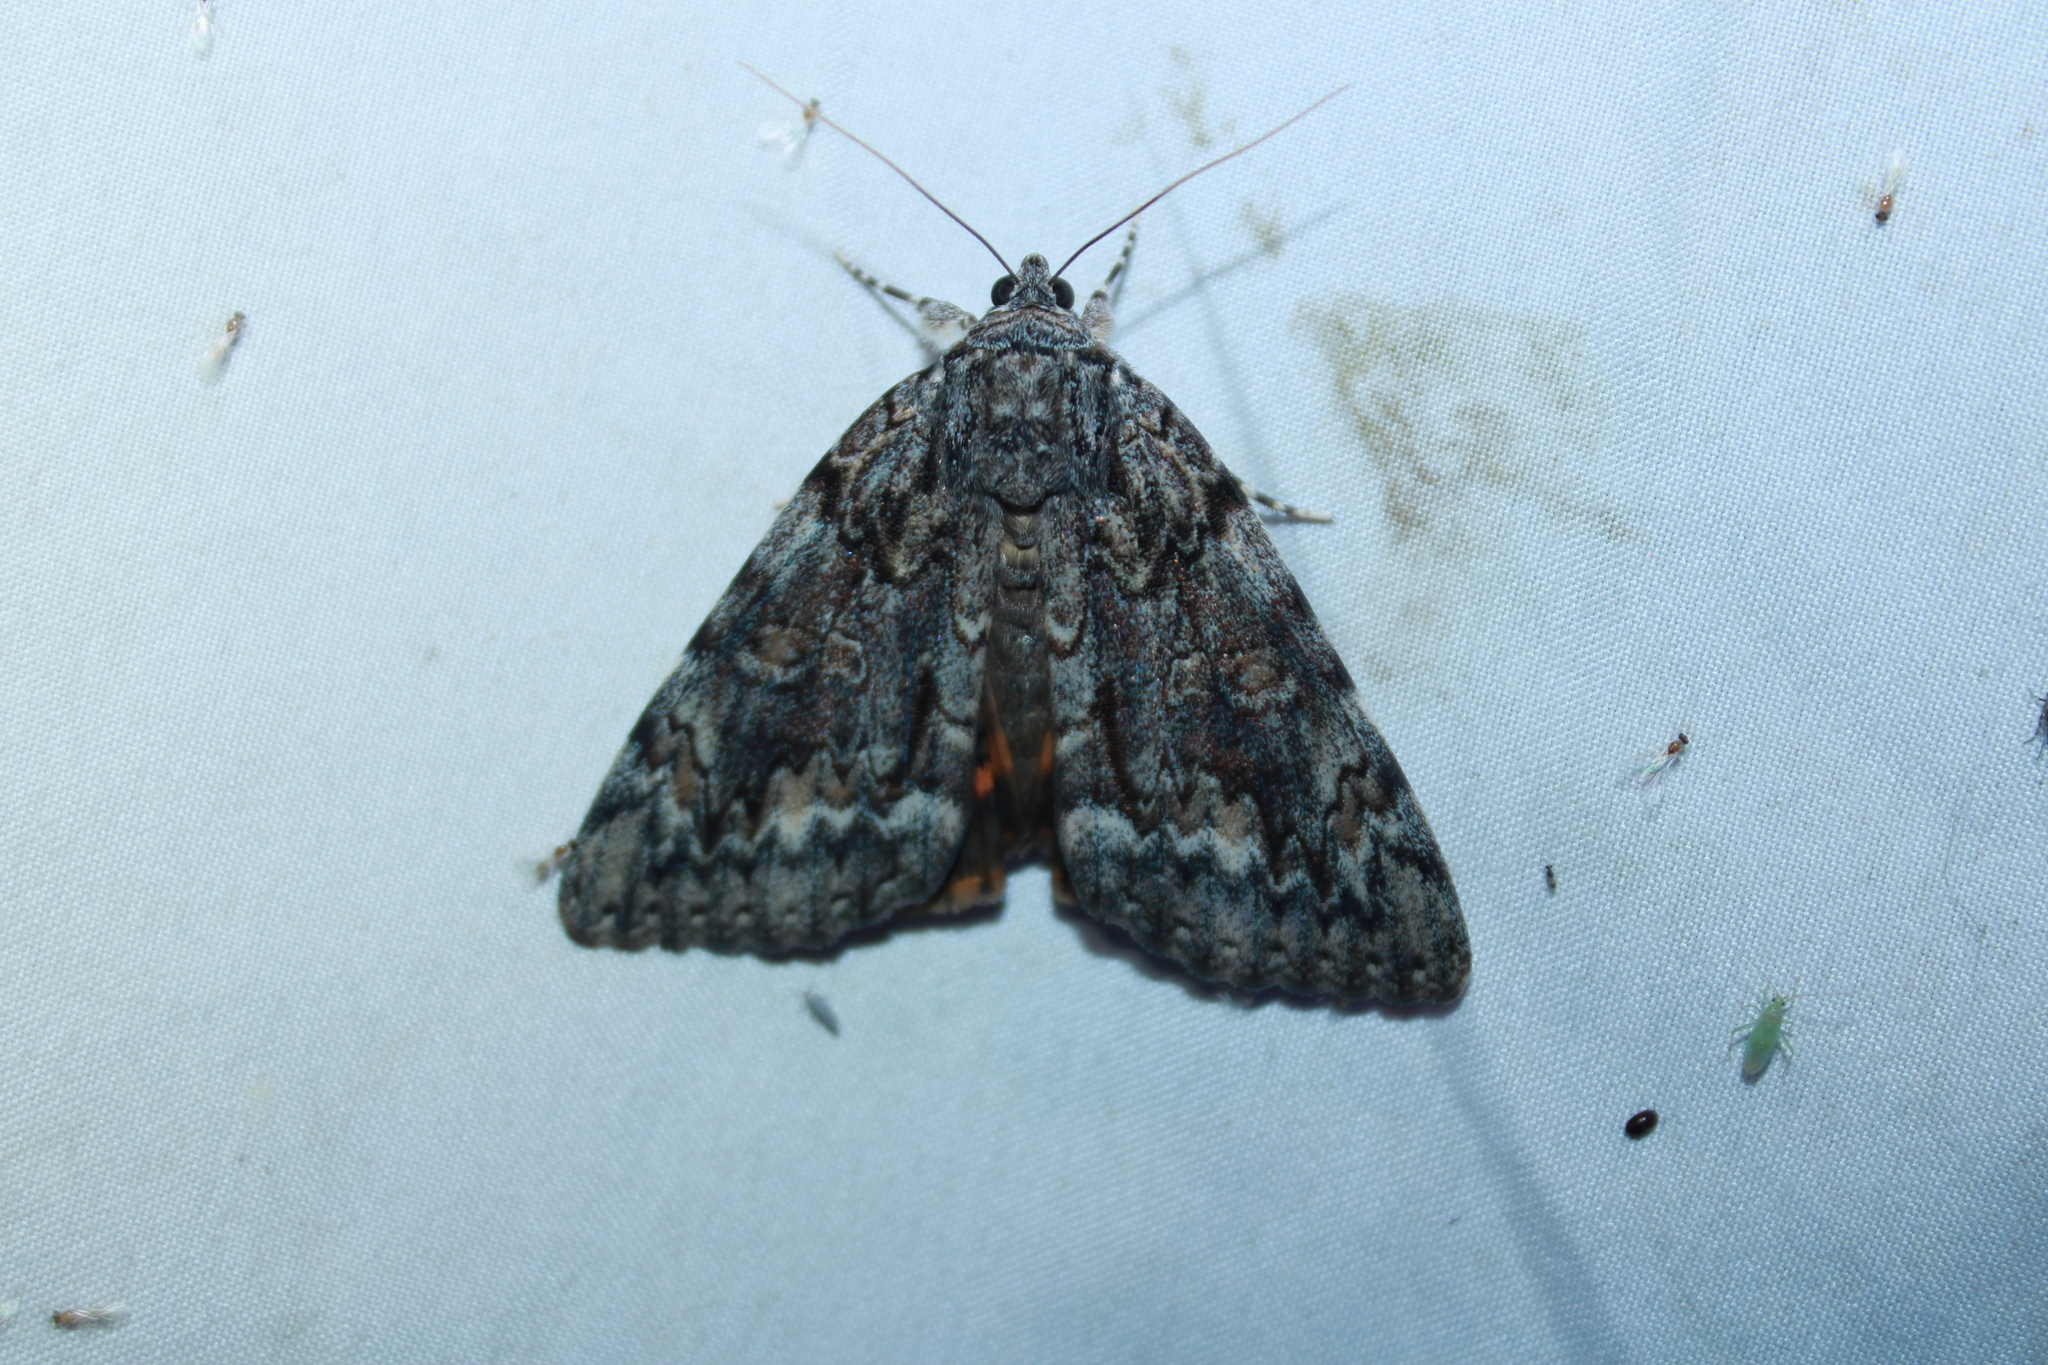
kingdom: Animalia
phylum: Arthropoda
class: Insecta
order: Lepidoptera
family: Erebidae
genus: Catocala
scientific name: Catocala palaeogama
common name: Oldwife underwing
